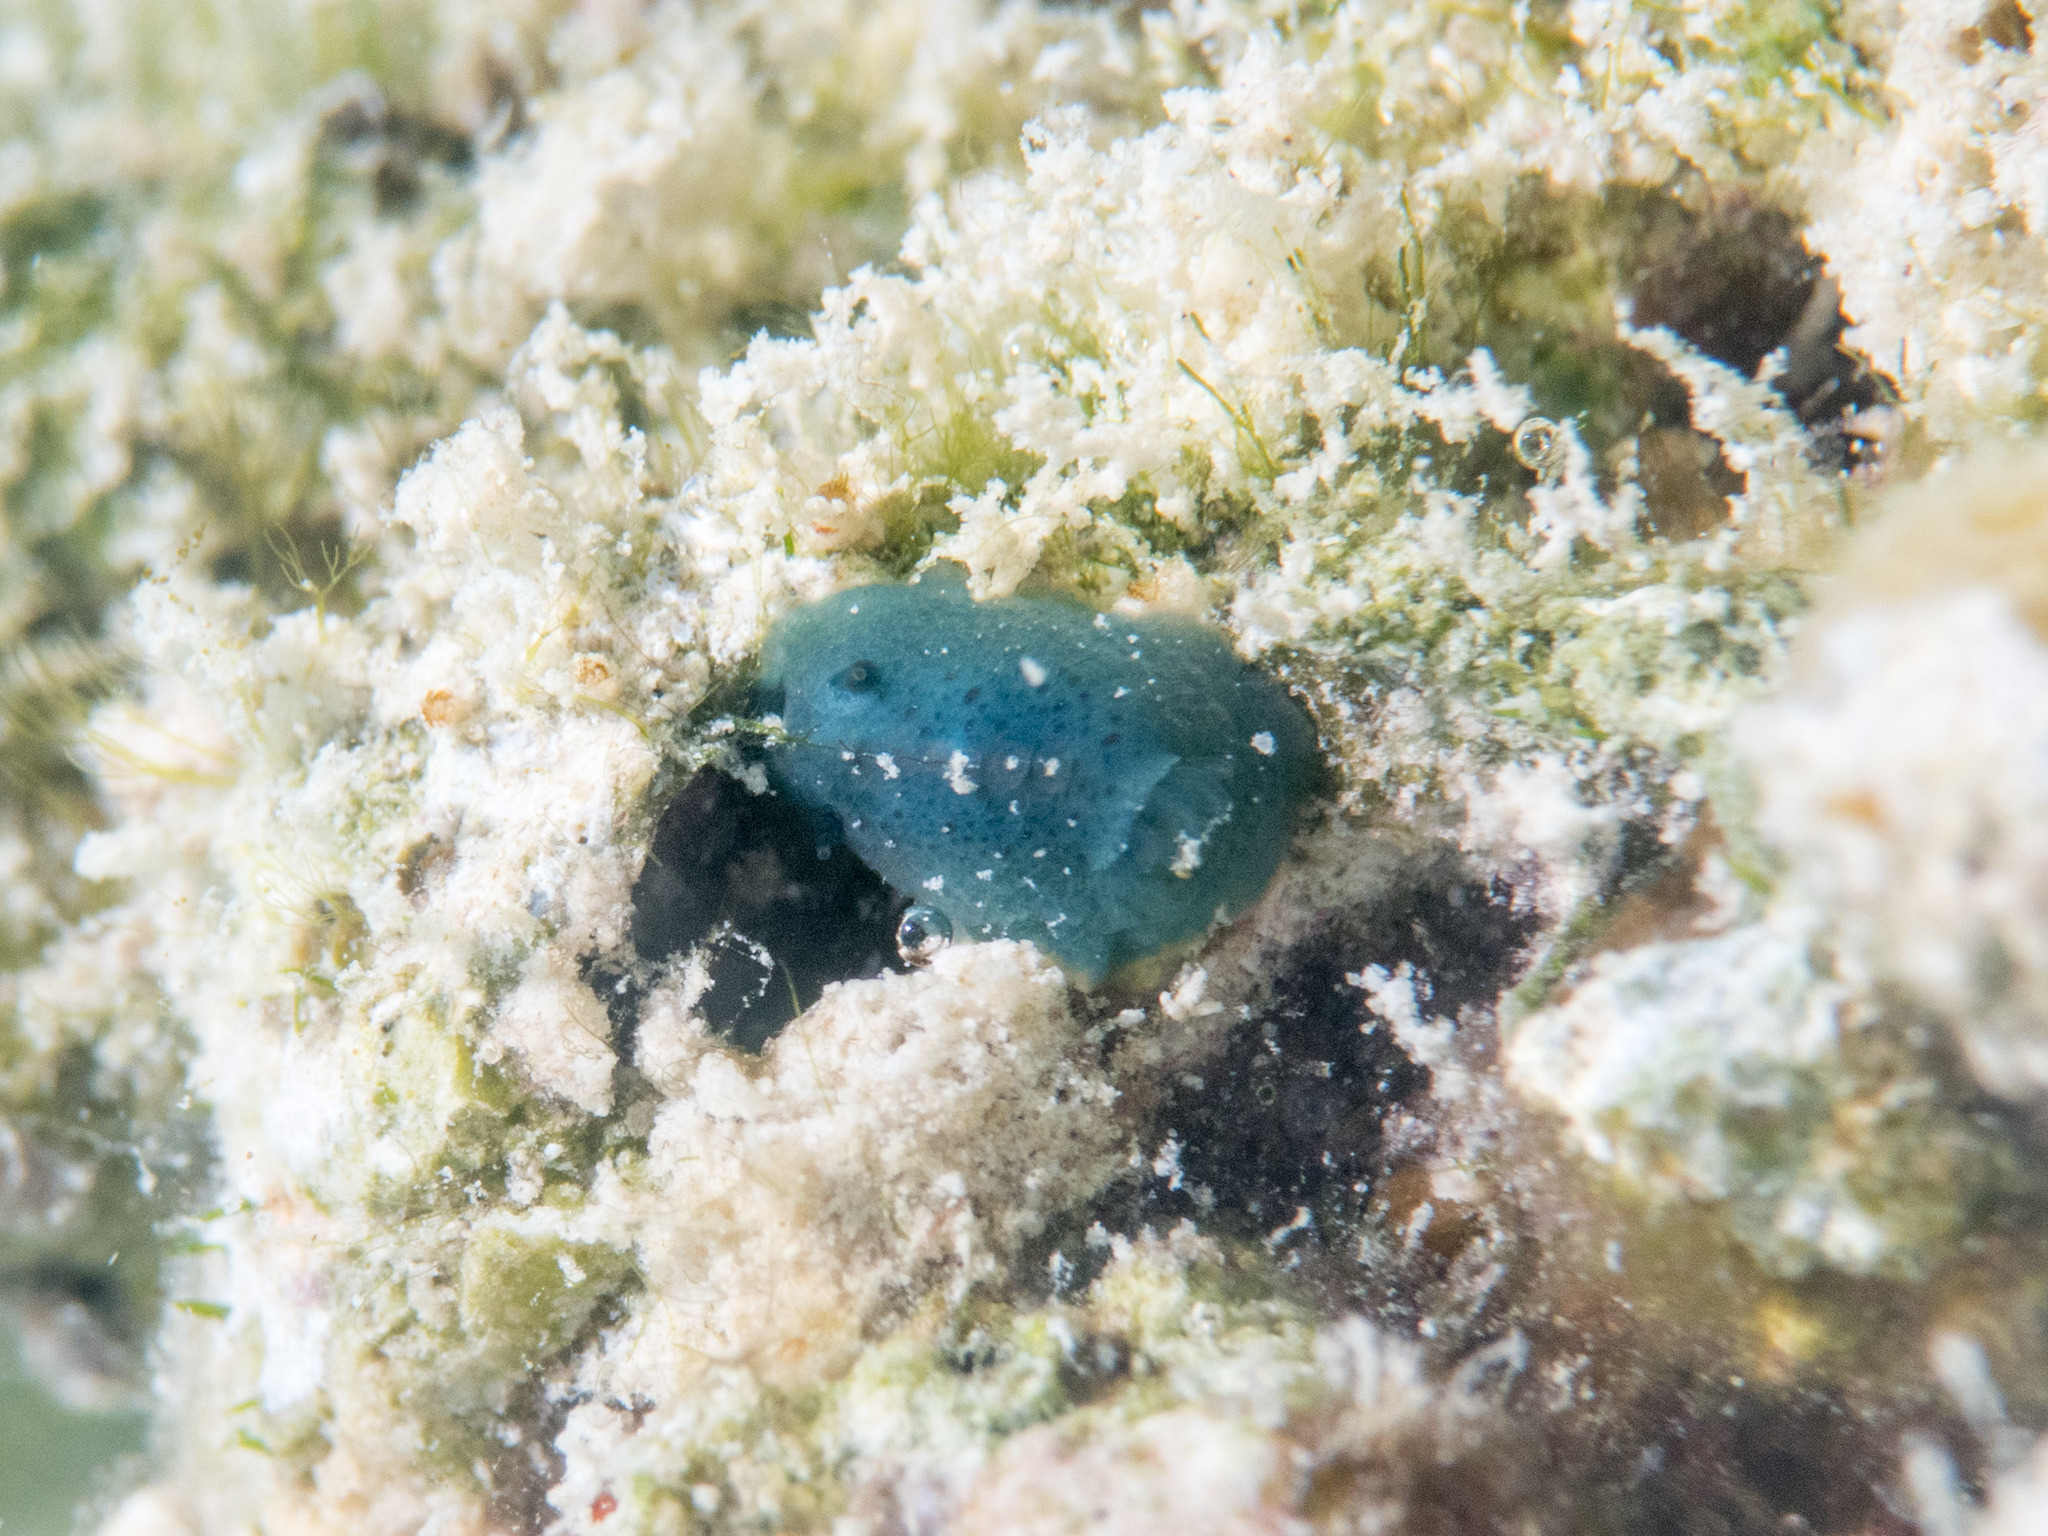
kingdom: Animalia
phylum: Mollusca
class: Gastropoda
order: Nudibranchia
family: Dorididae
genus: Doriopsis
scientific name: Doriopsis pecten
